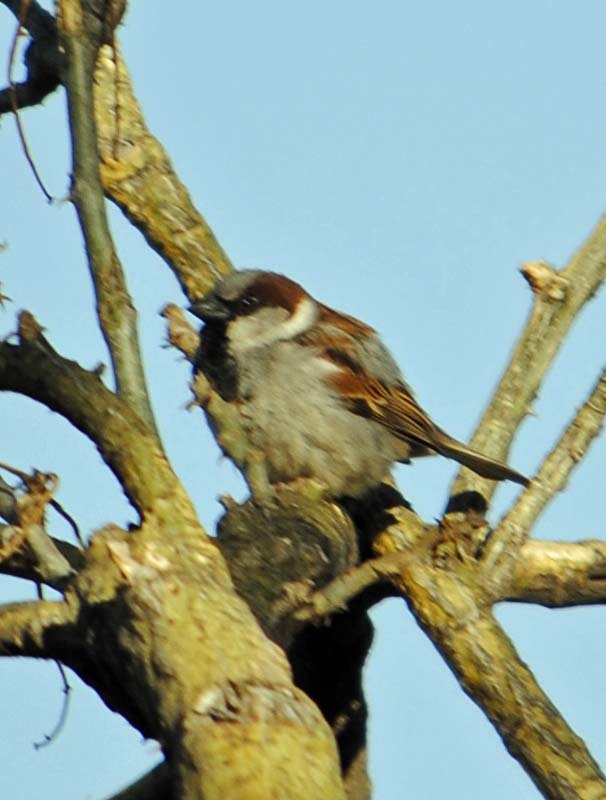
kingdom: Animalia
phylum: Chordata
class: Aves
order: Passeriformes
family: Passeridae
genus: Passer
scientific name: Passer domesticus
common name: House sparrow
